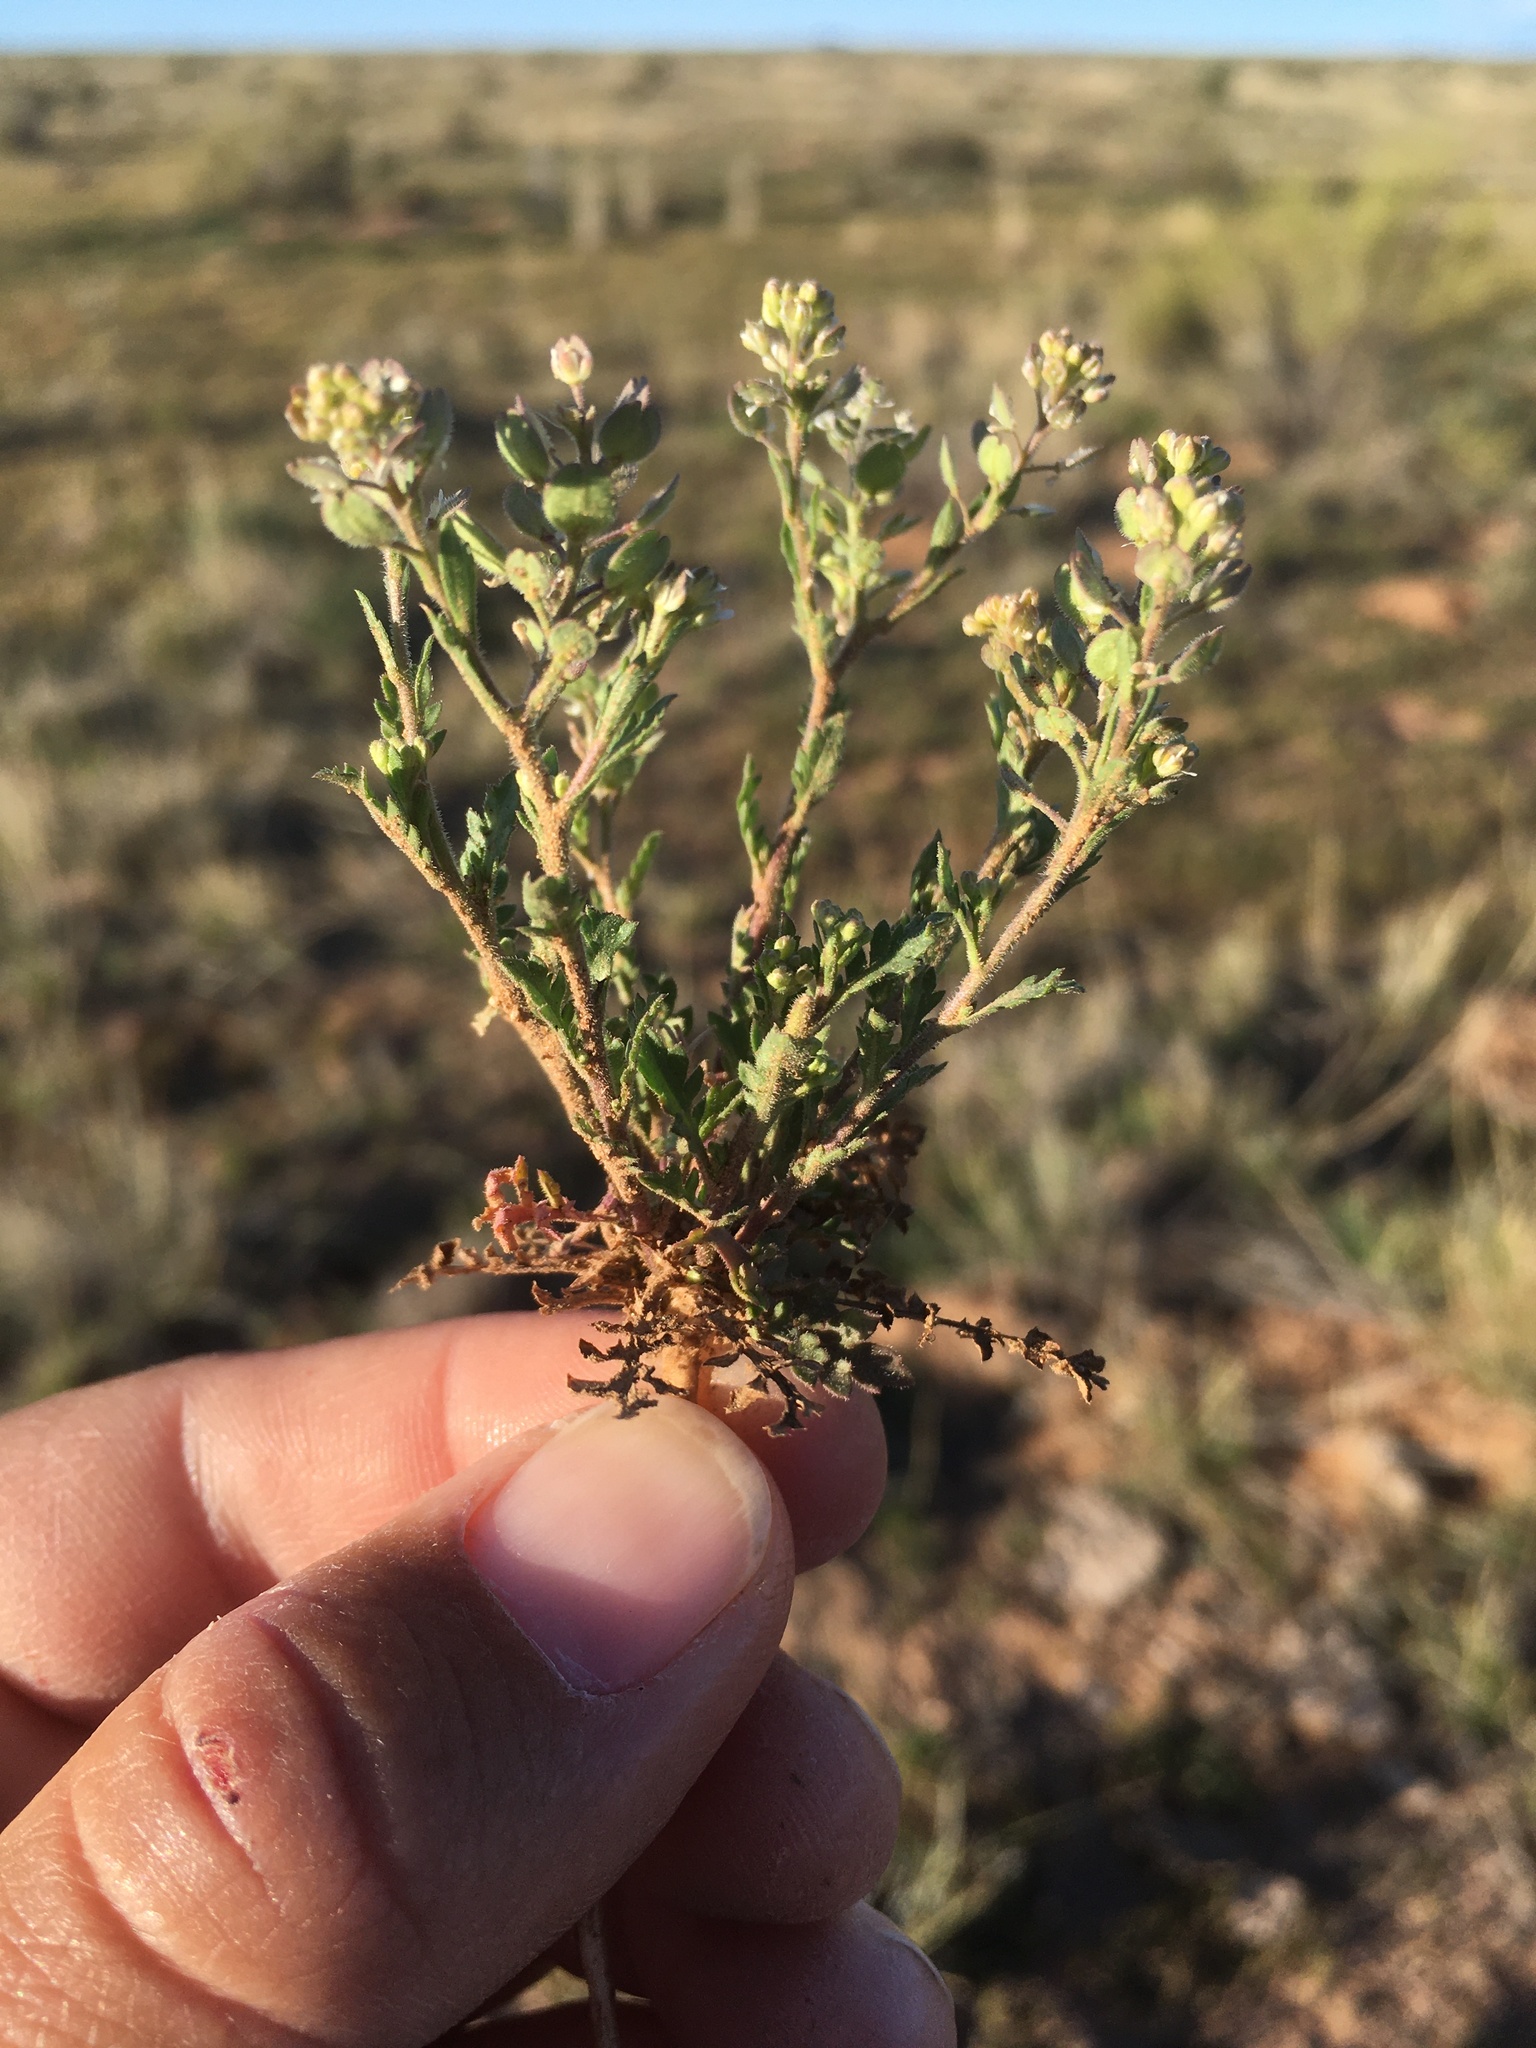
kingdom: Plantae
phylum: Tracheophyta
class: Magnoliopsida
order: Brassicales
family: Brassicaceae
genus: Lepidium
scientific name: Lepidium lasiocarpum
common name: Hairy-pod pepperwort
